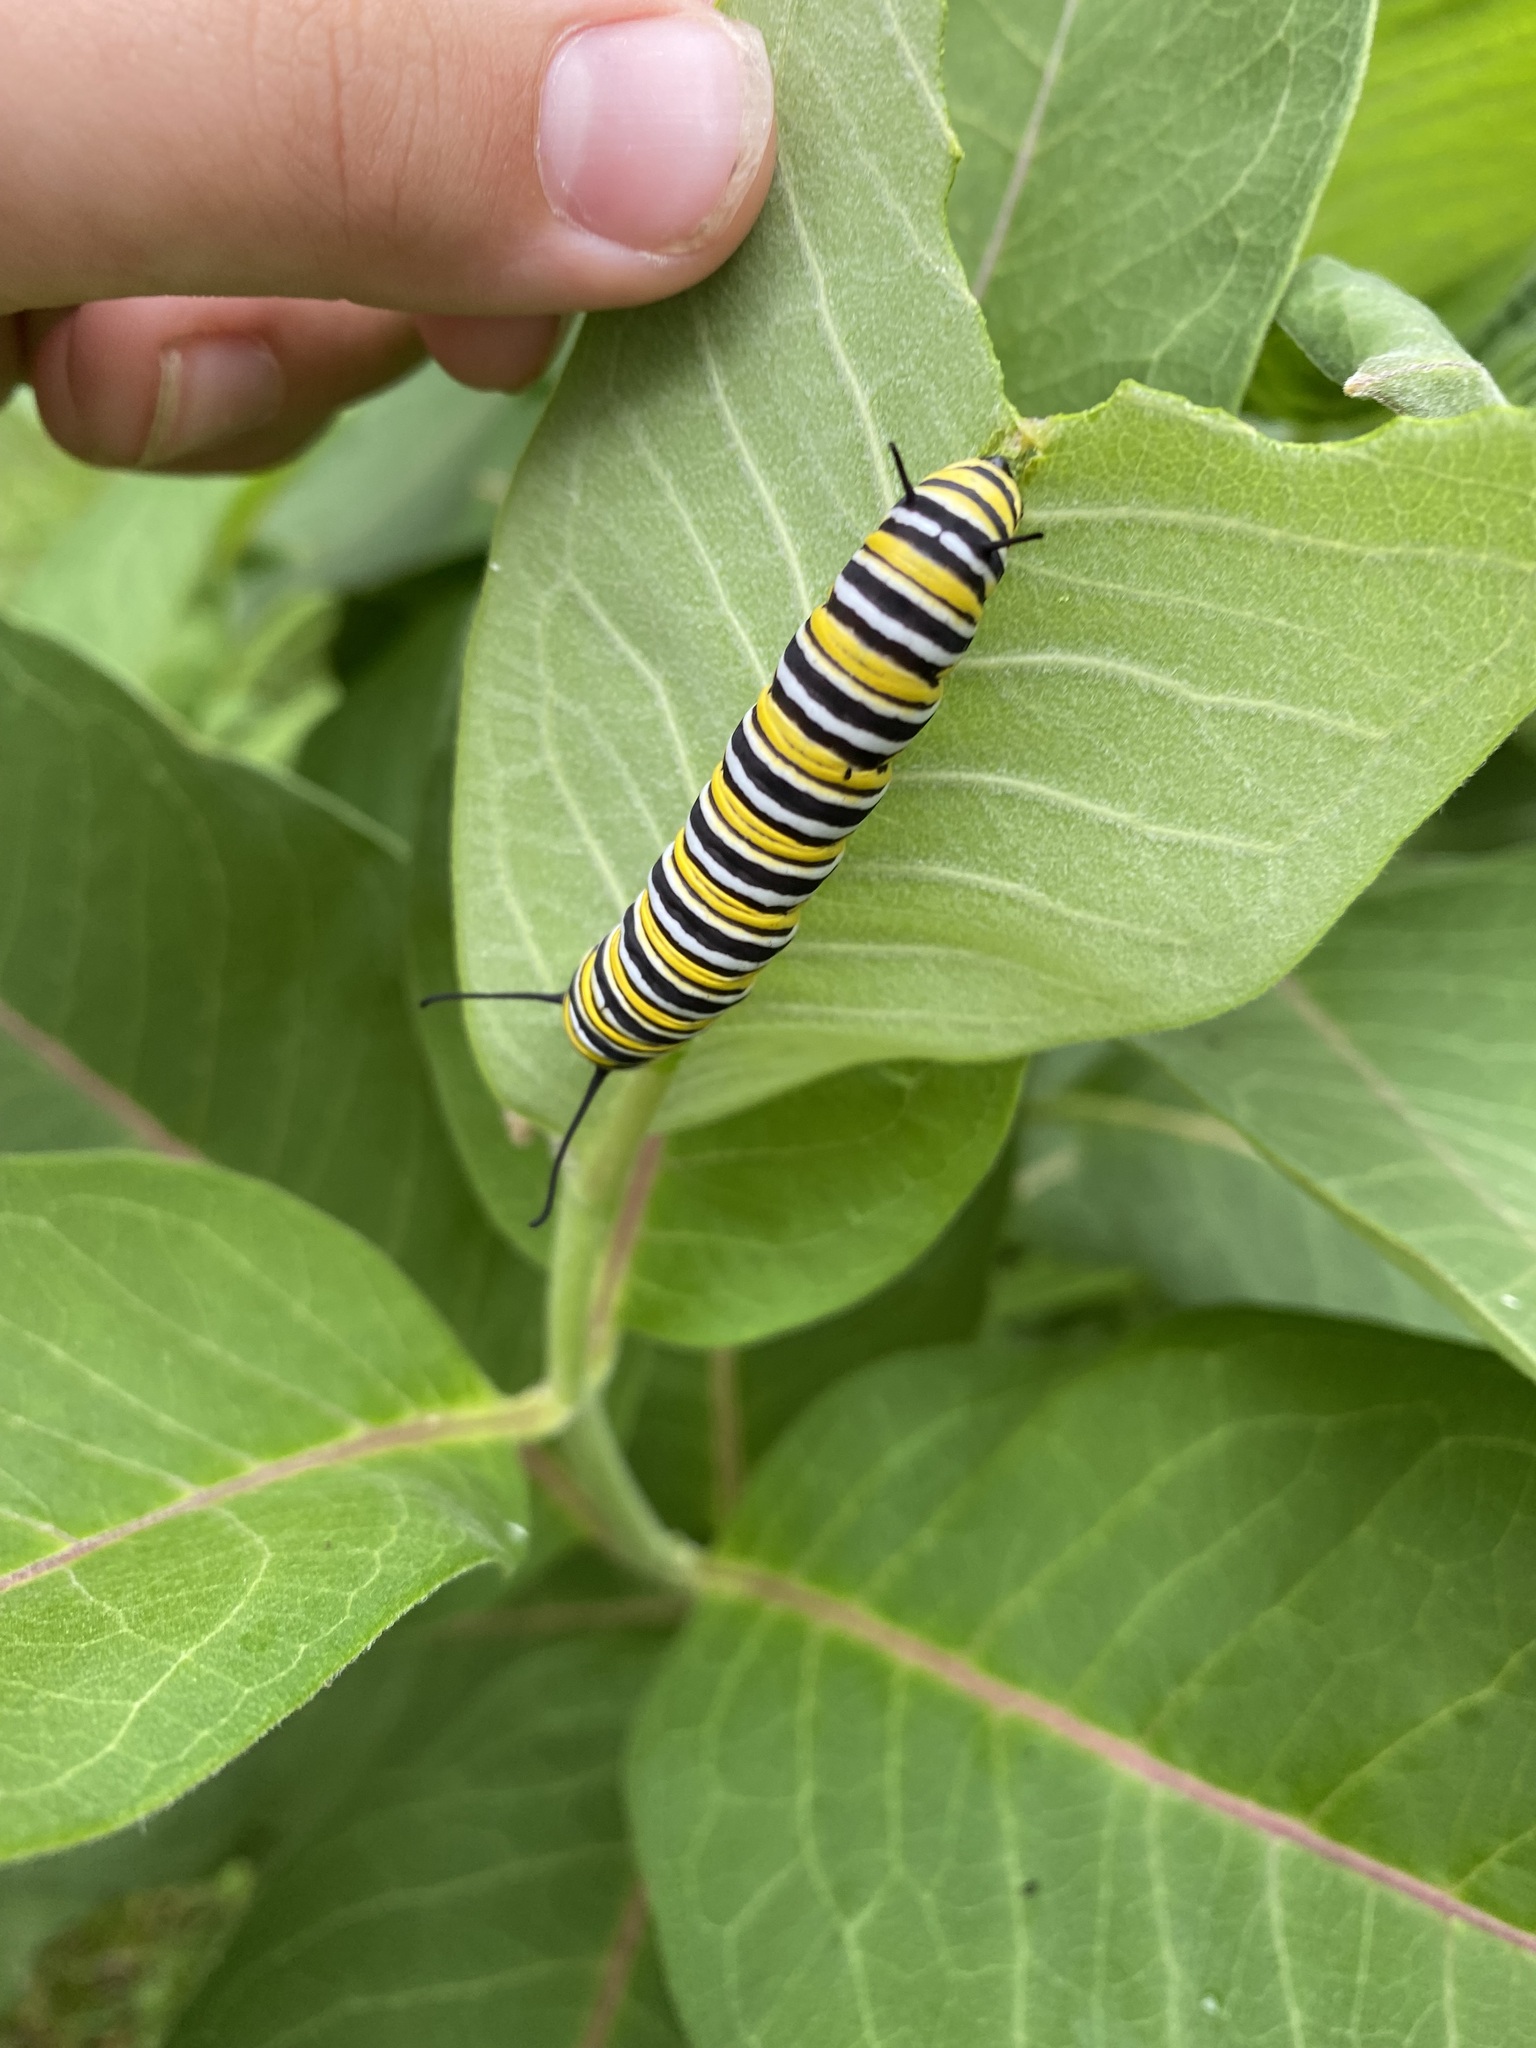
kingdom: Animalia
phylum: Arthropoda
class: Insecta
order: Lepidoptera
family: Nymphalidae
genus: Danaus
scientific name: Danaus plexippus
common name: Monarch
